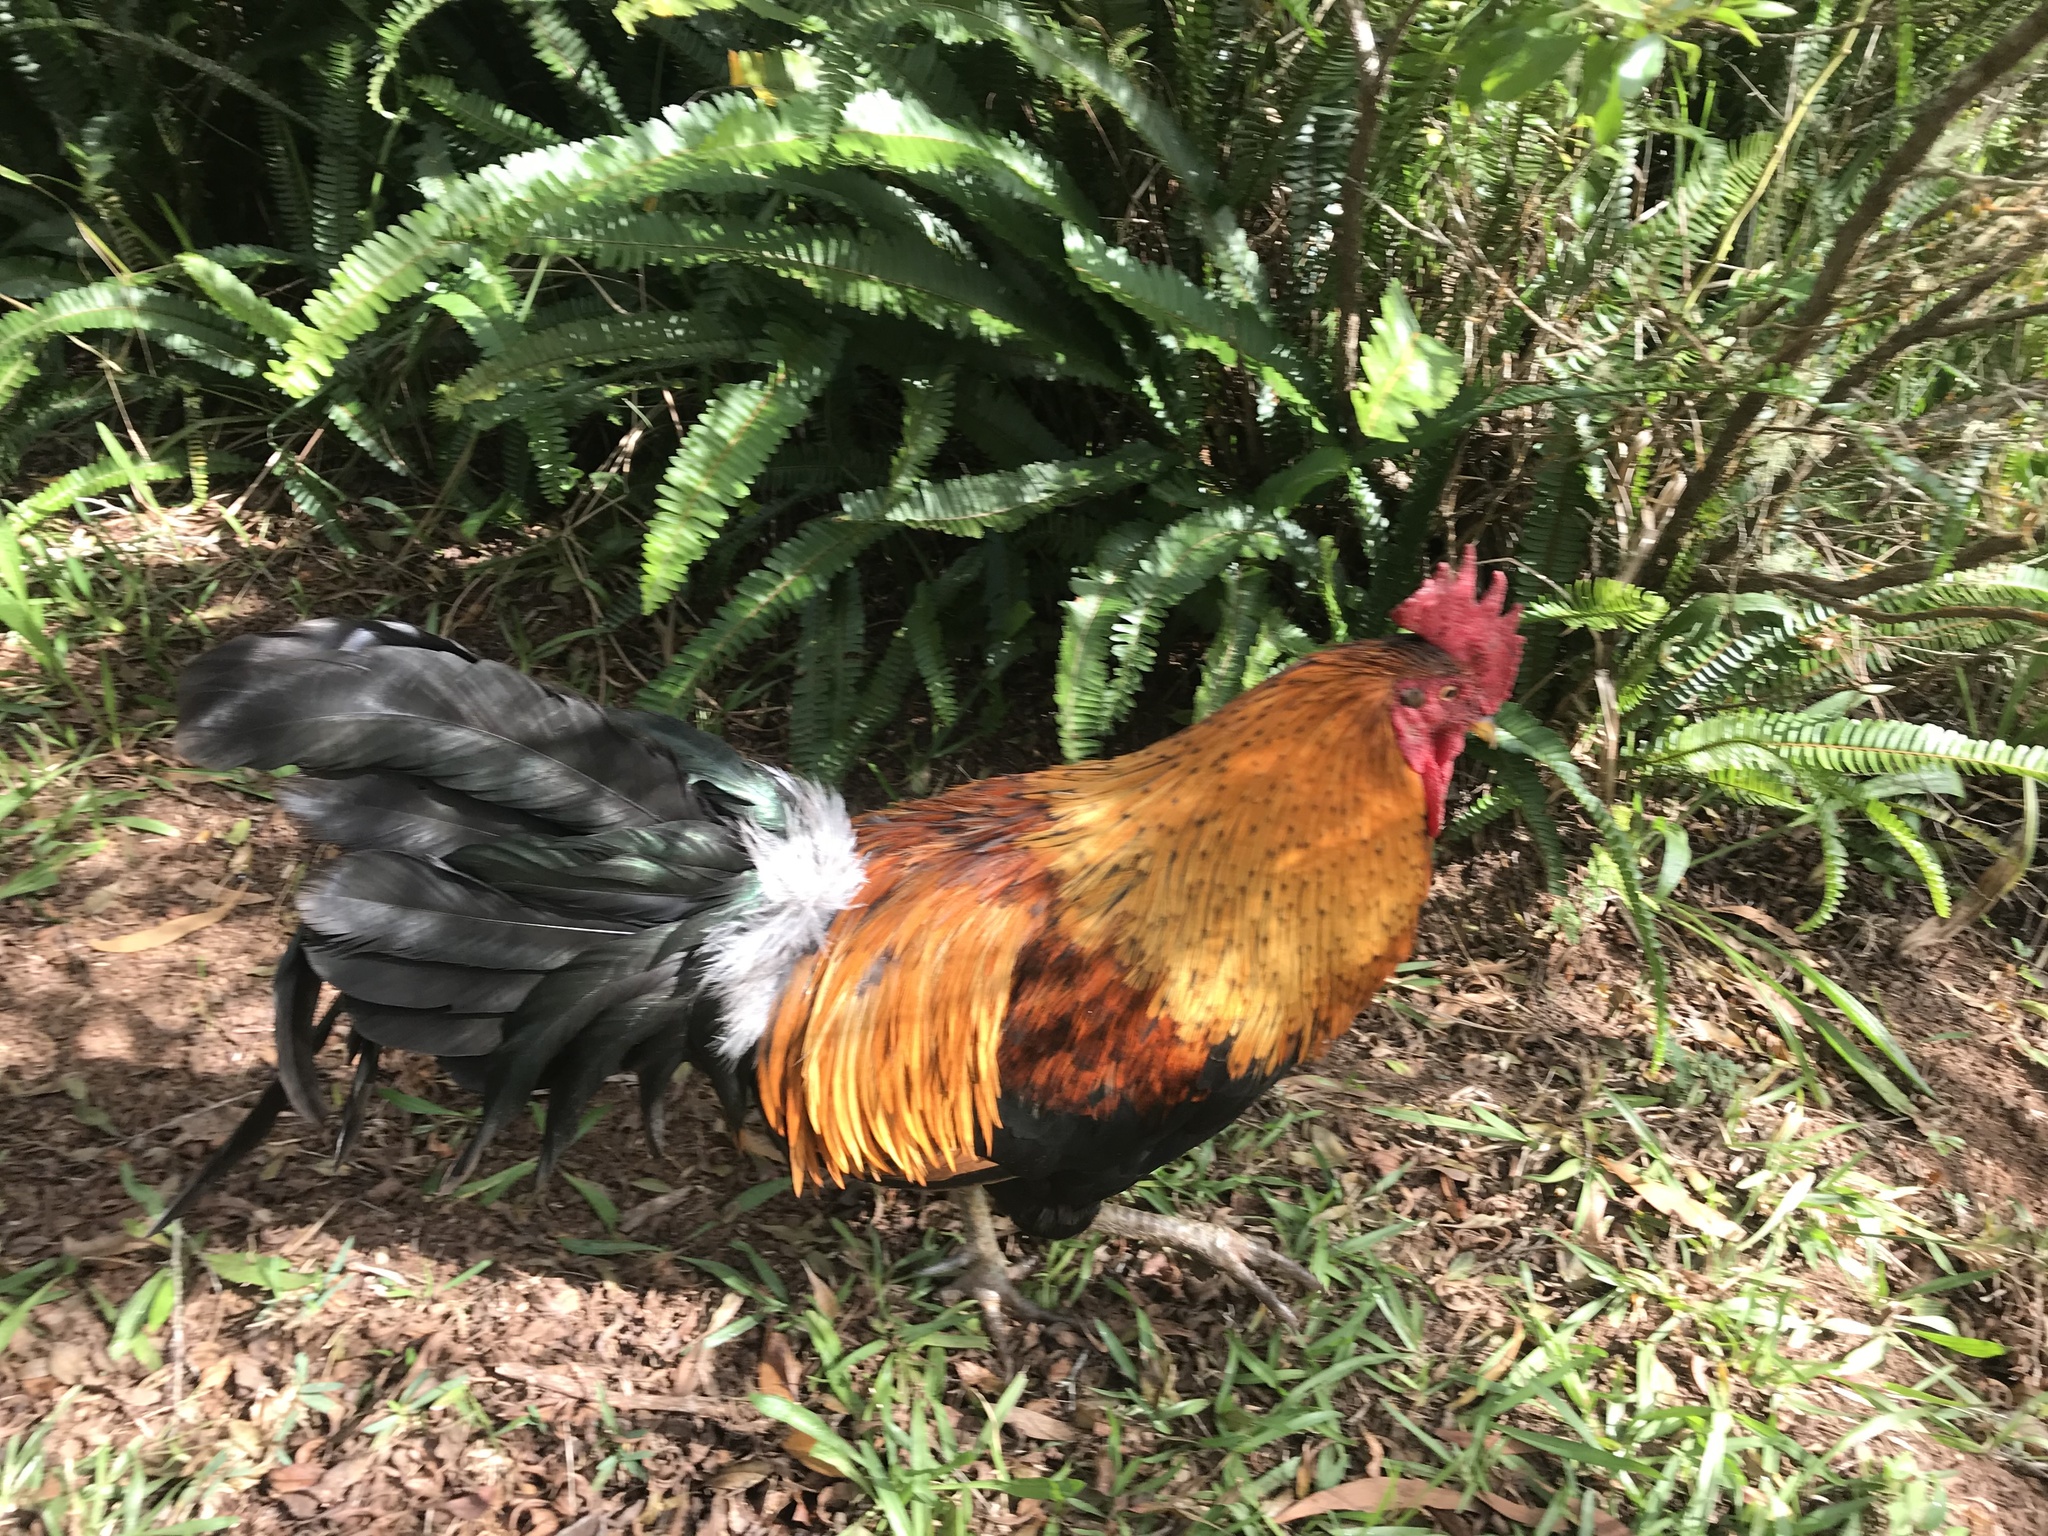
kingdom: Animalia
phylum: Chordata
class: Aves
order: Galliformes
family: Phasianidae
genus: Gallus
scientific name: Gallus gallus
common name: Red junglefowl
